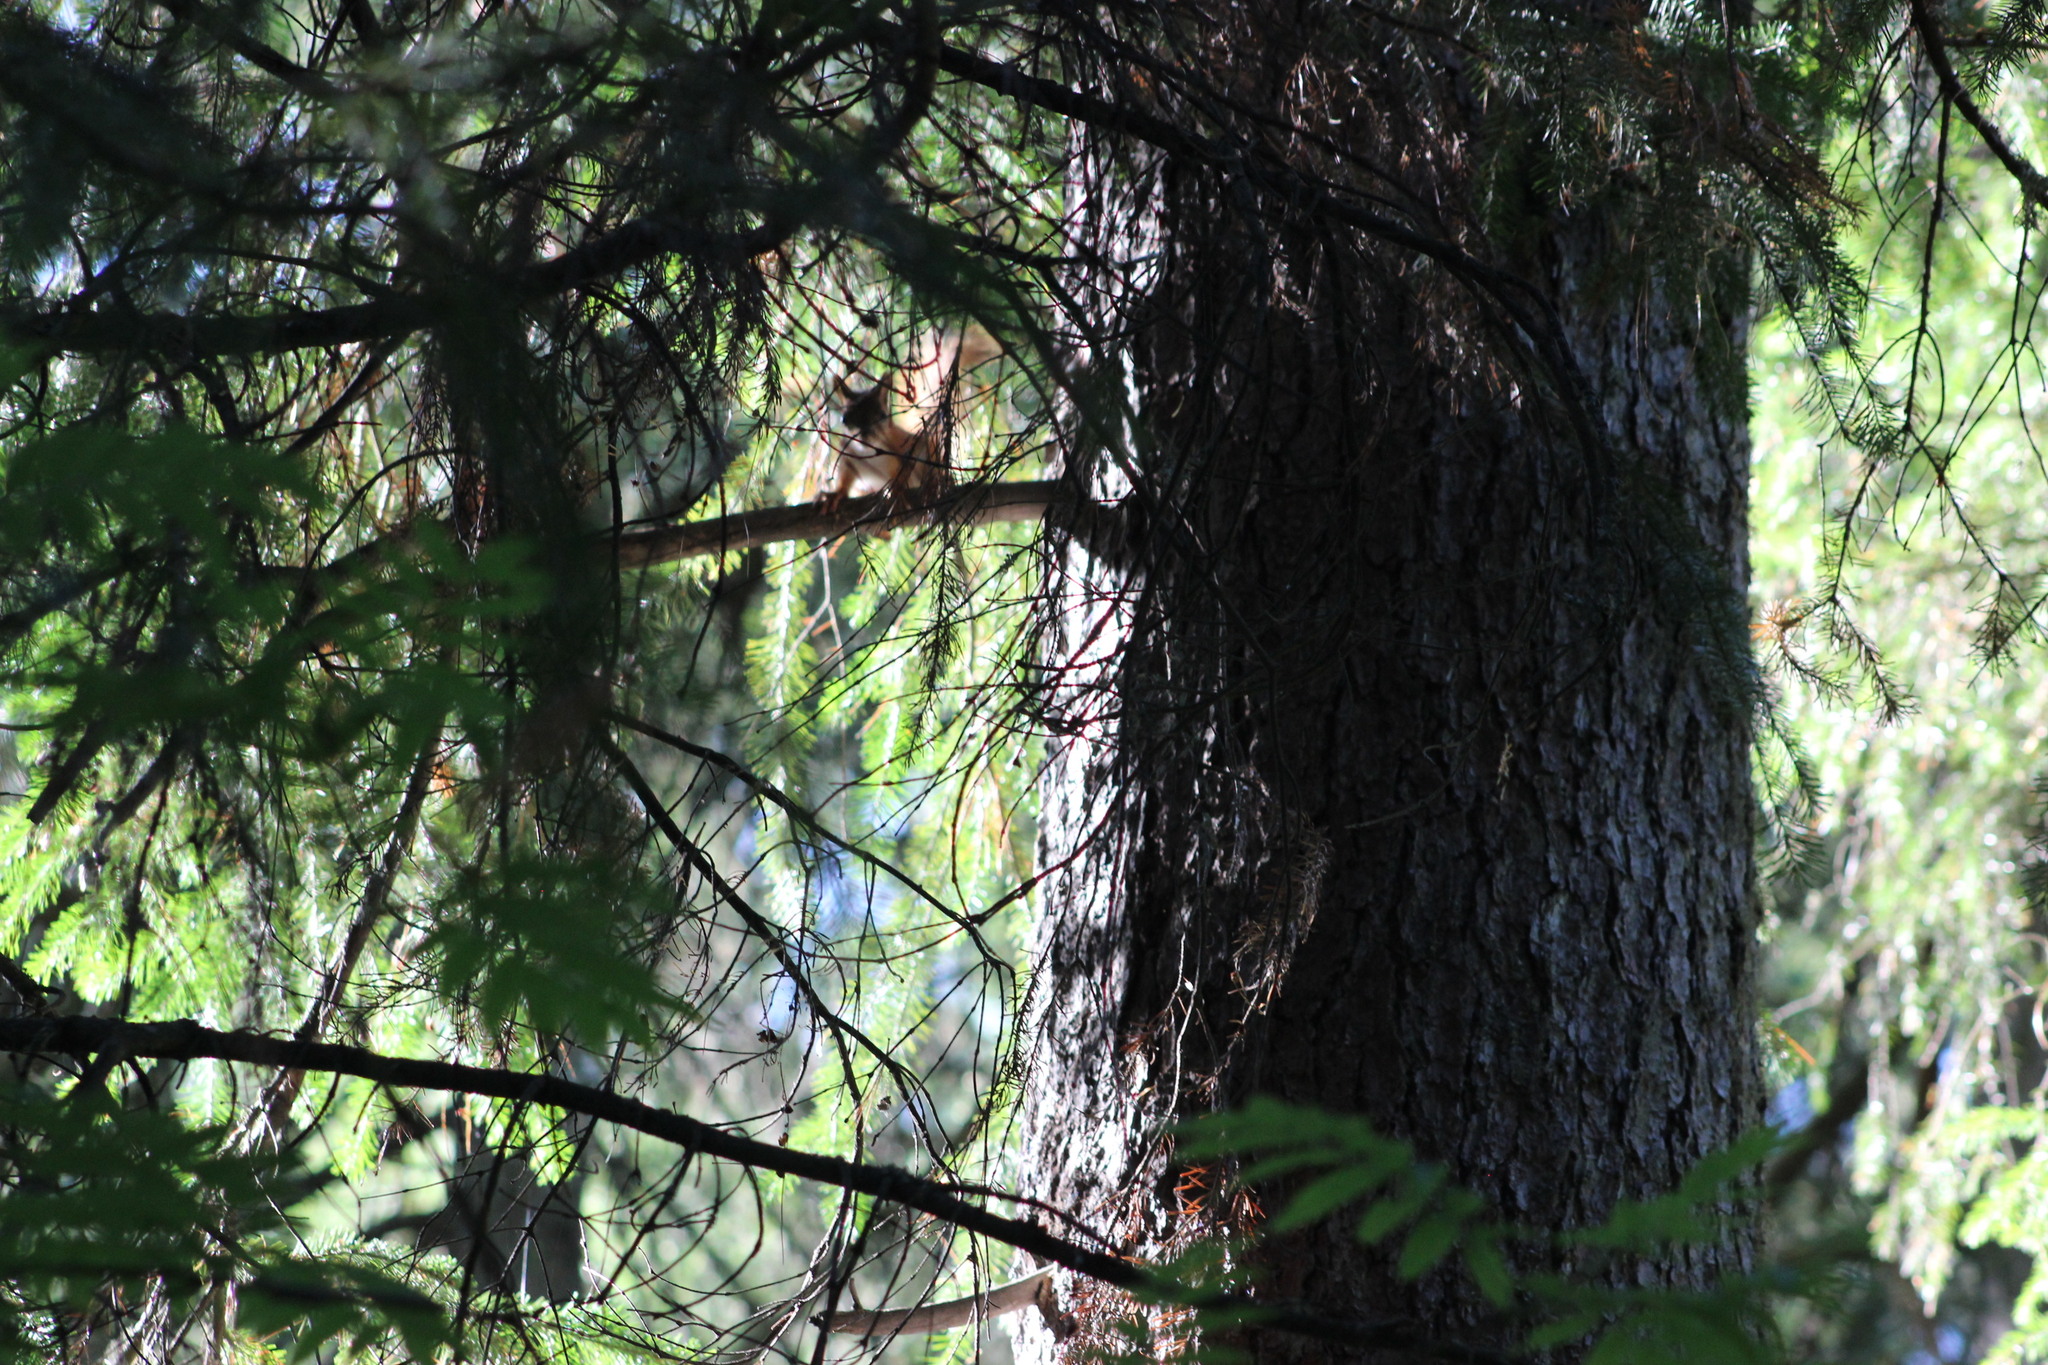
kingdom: Animalia
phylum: Chordata
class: Mammalia
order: Rodentia
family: Sciuridae
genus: Sciurus
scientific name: Sciurus vulgaris
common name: Eurasian red squirrel
